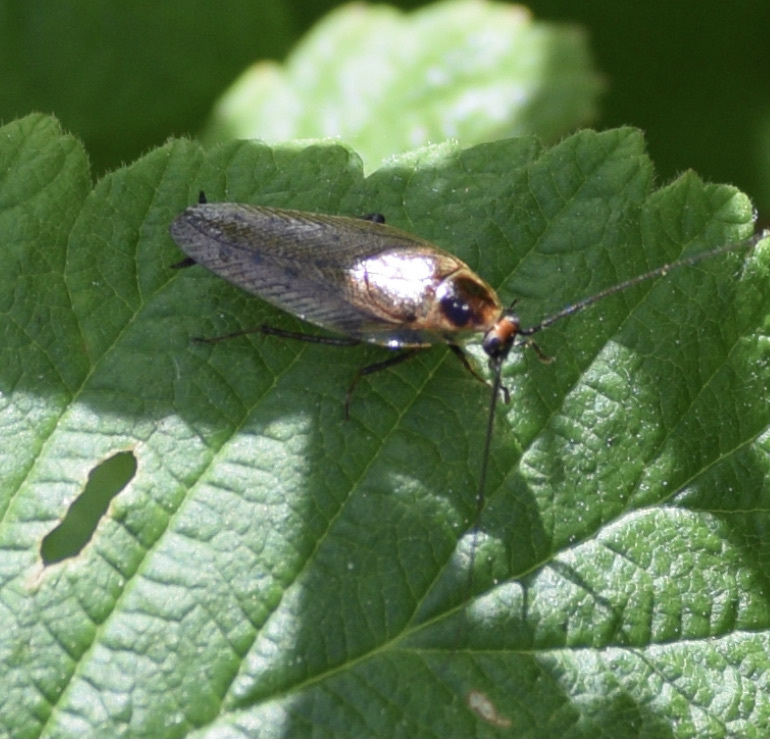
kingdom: Animalia
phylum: Arthropoda
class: Insecta
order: Blattodea
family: Ectobiidae
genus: Ectobius
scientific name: Ectobius lapponicus
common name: Dusky cockroach
